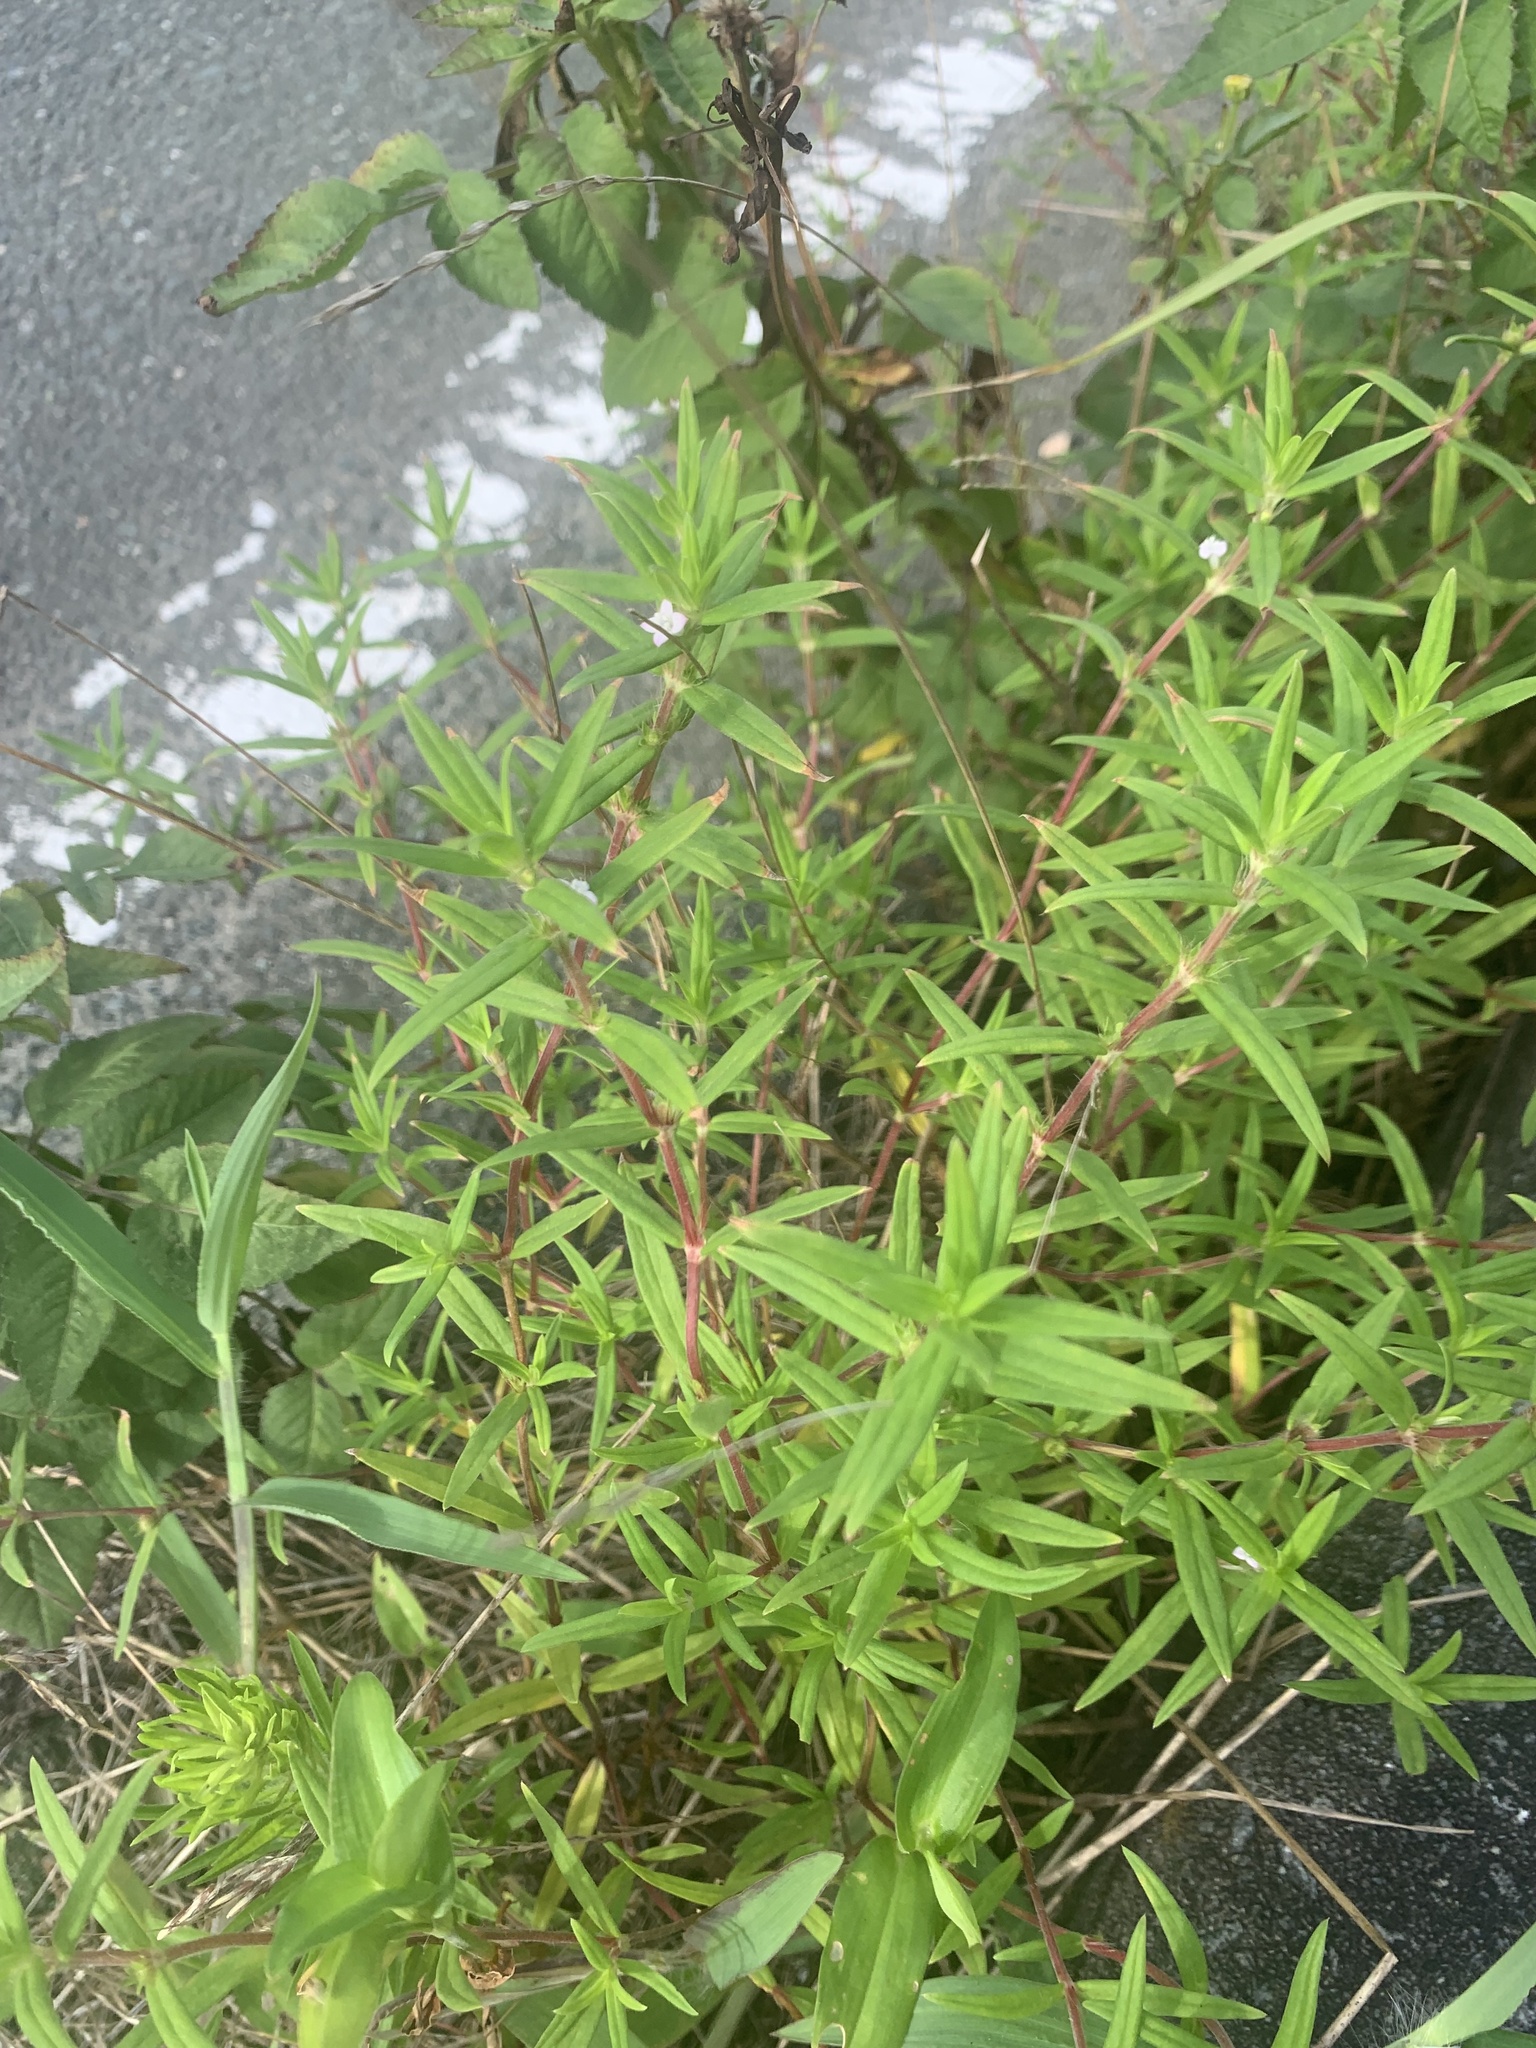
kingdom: Plantae
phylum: Tracheophyta
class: Magnoliopsida
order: Gentianales
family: Rubiaceae
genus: Hexasepalum
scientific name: Hexasepalum teres
